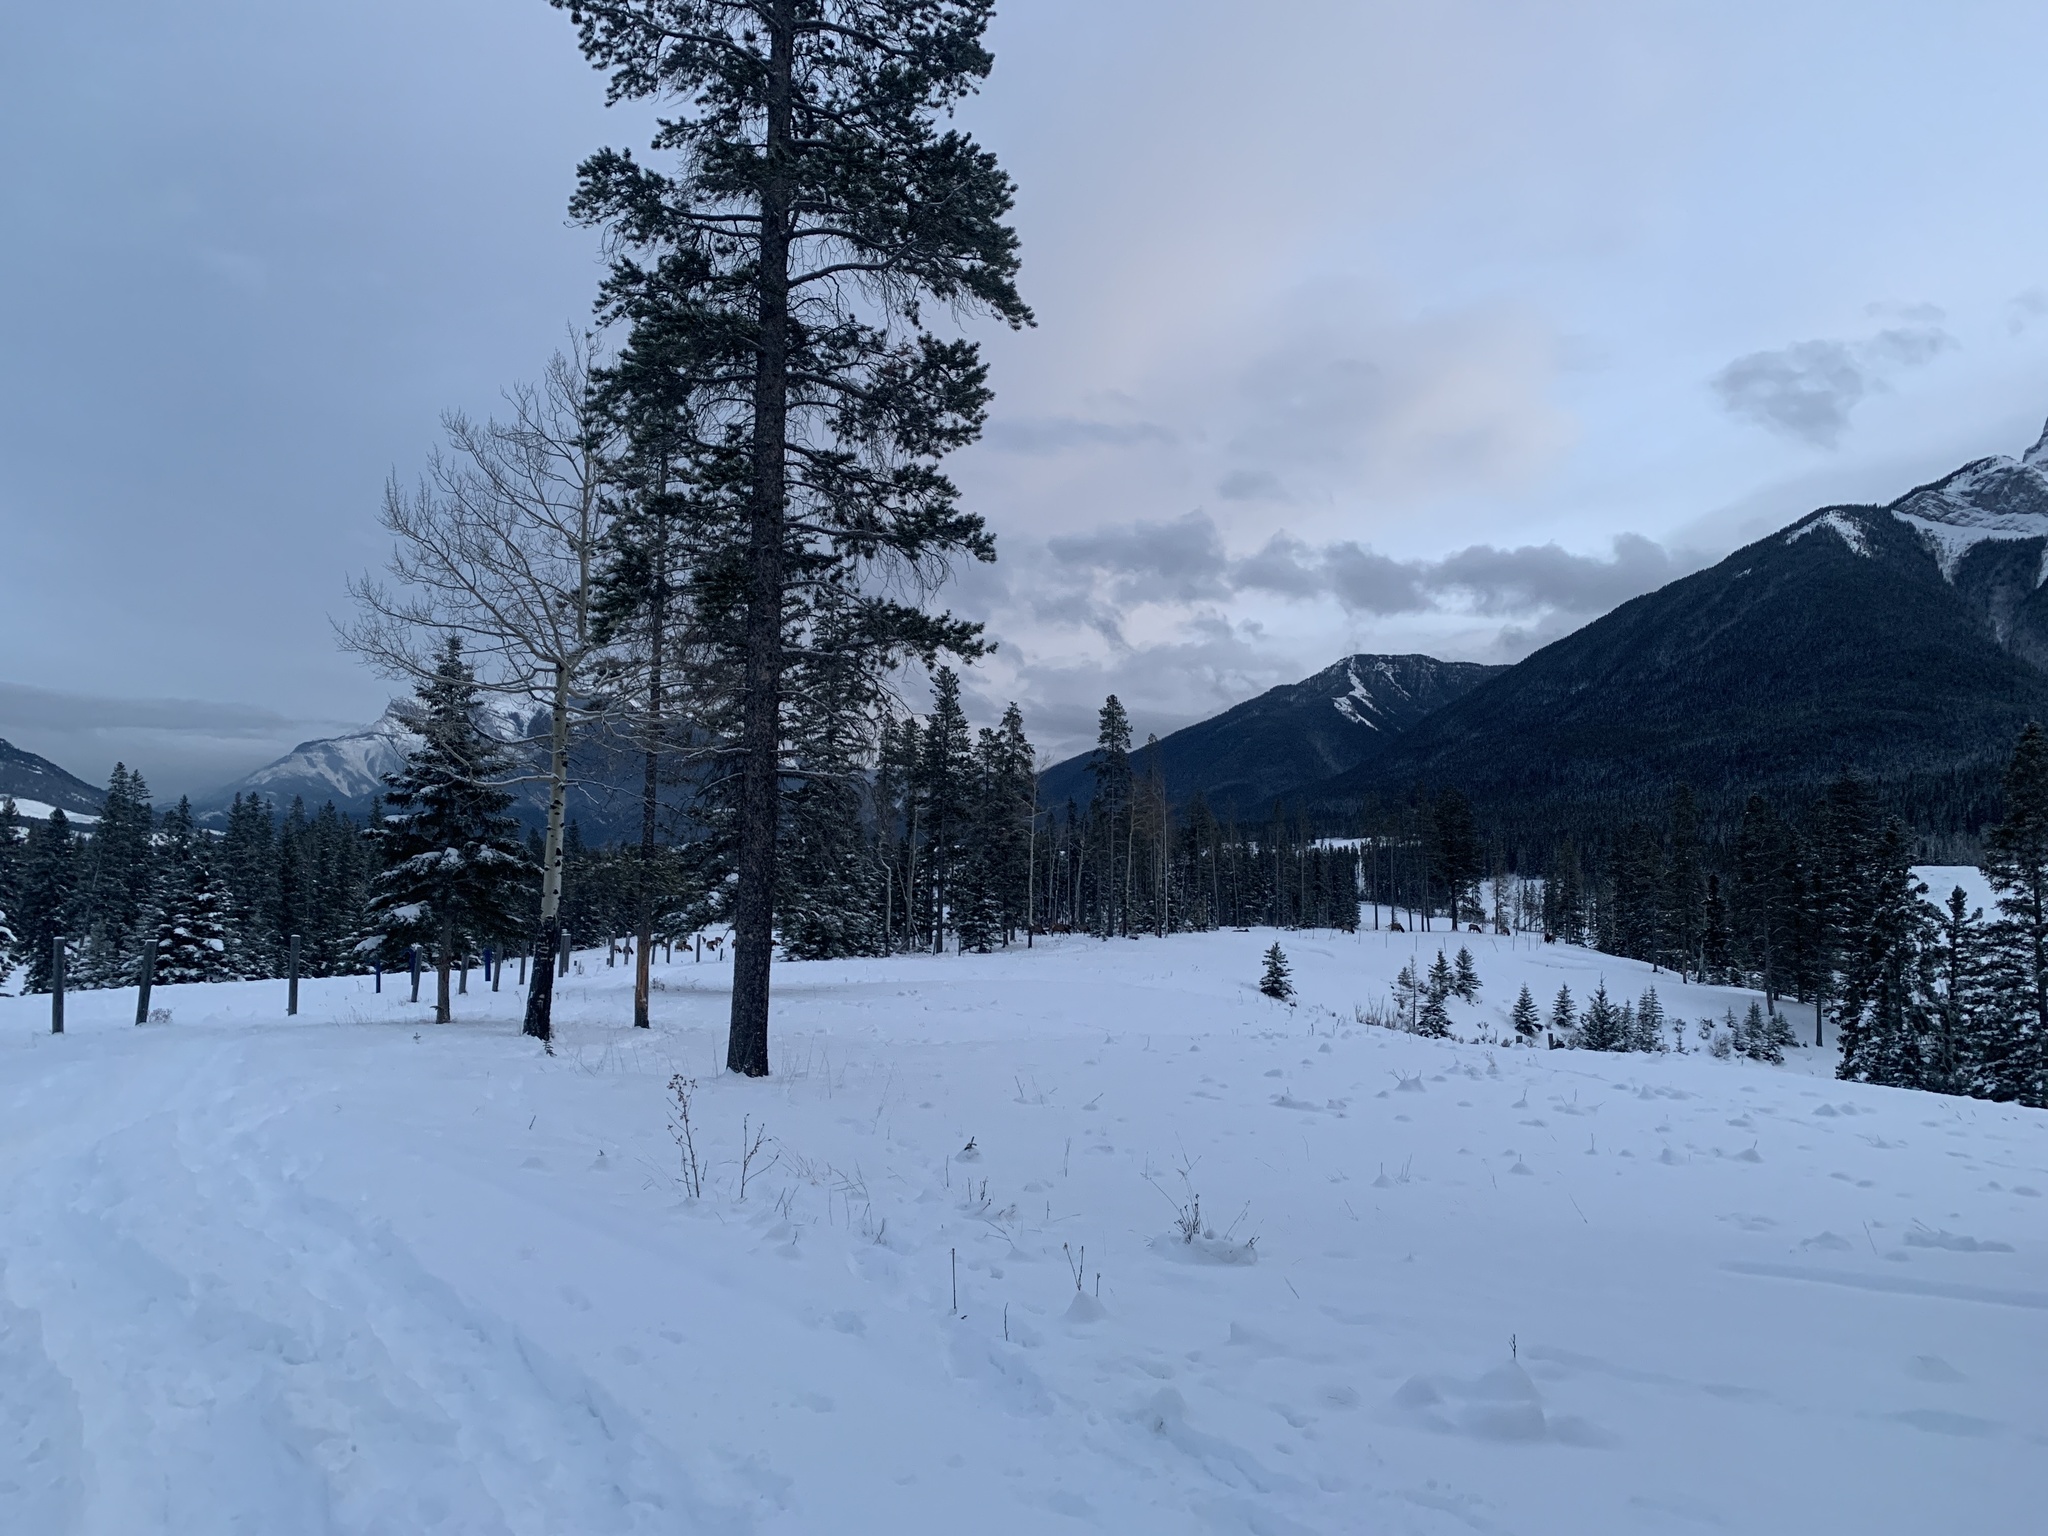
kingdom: Animalia
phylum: Chordata
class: Mammalia
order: Artiodactyla
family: Cervidae
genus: Cervus
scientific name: Cervus elaphus
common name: Red deer
